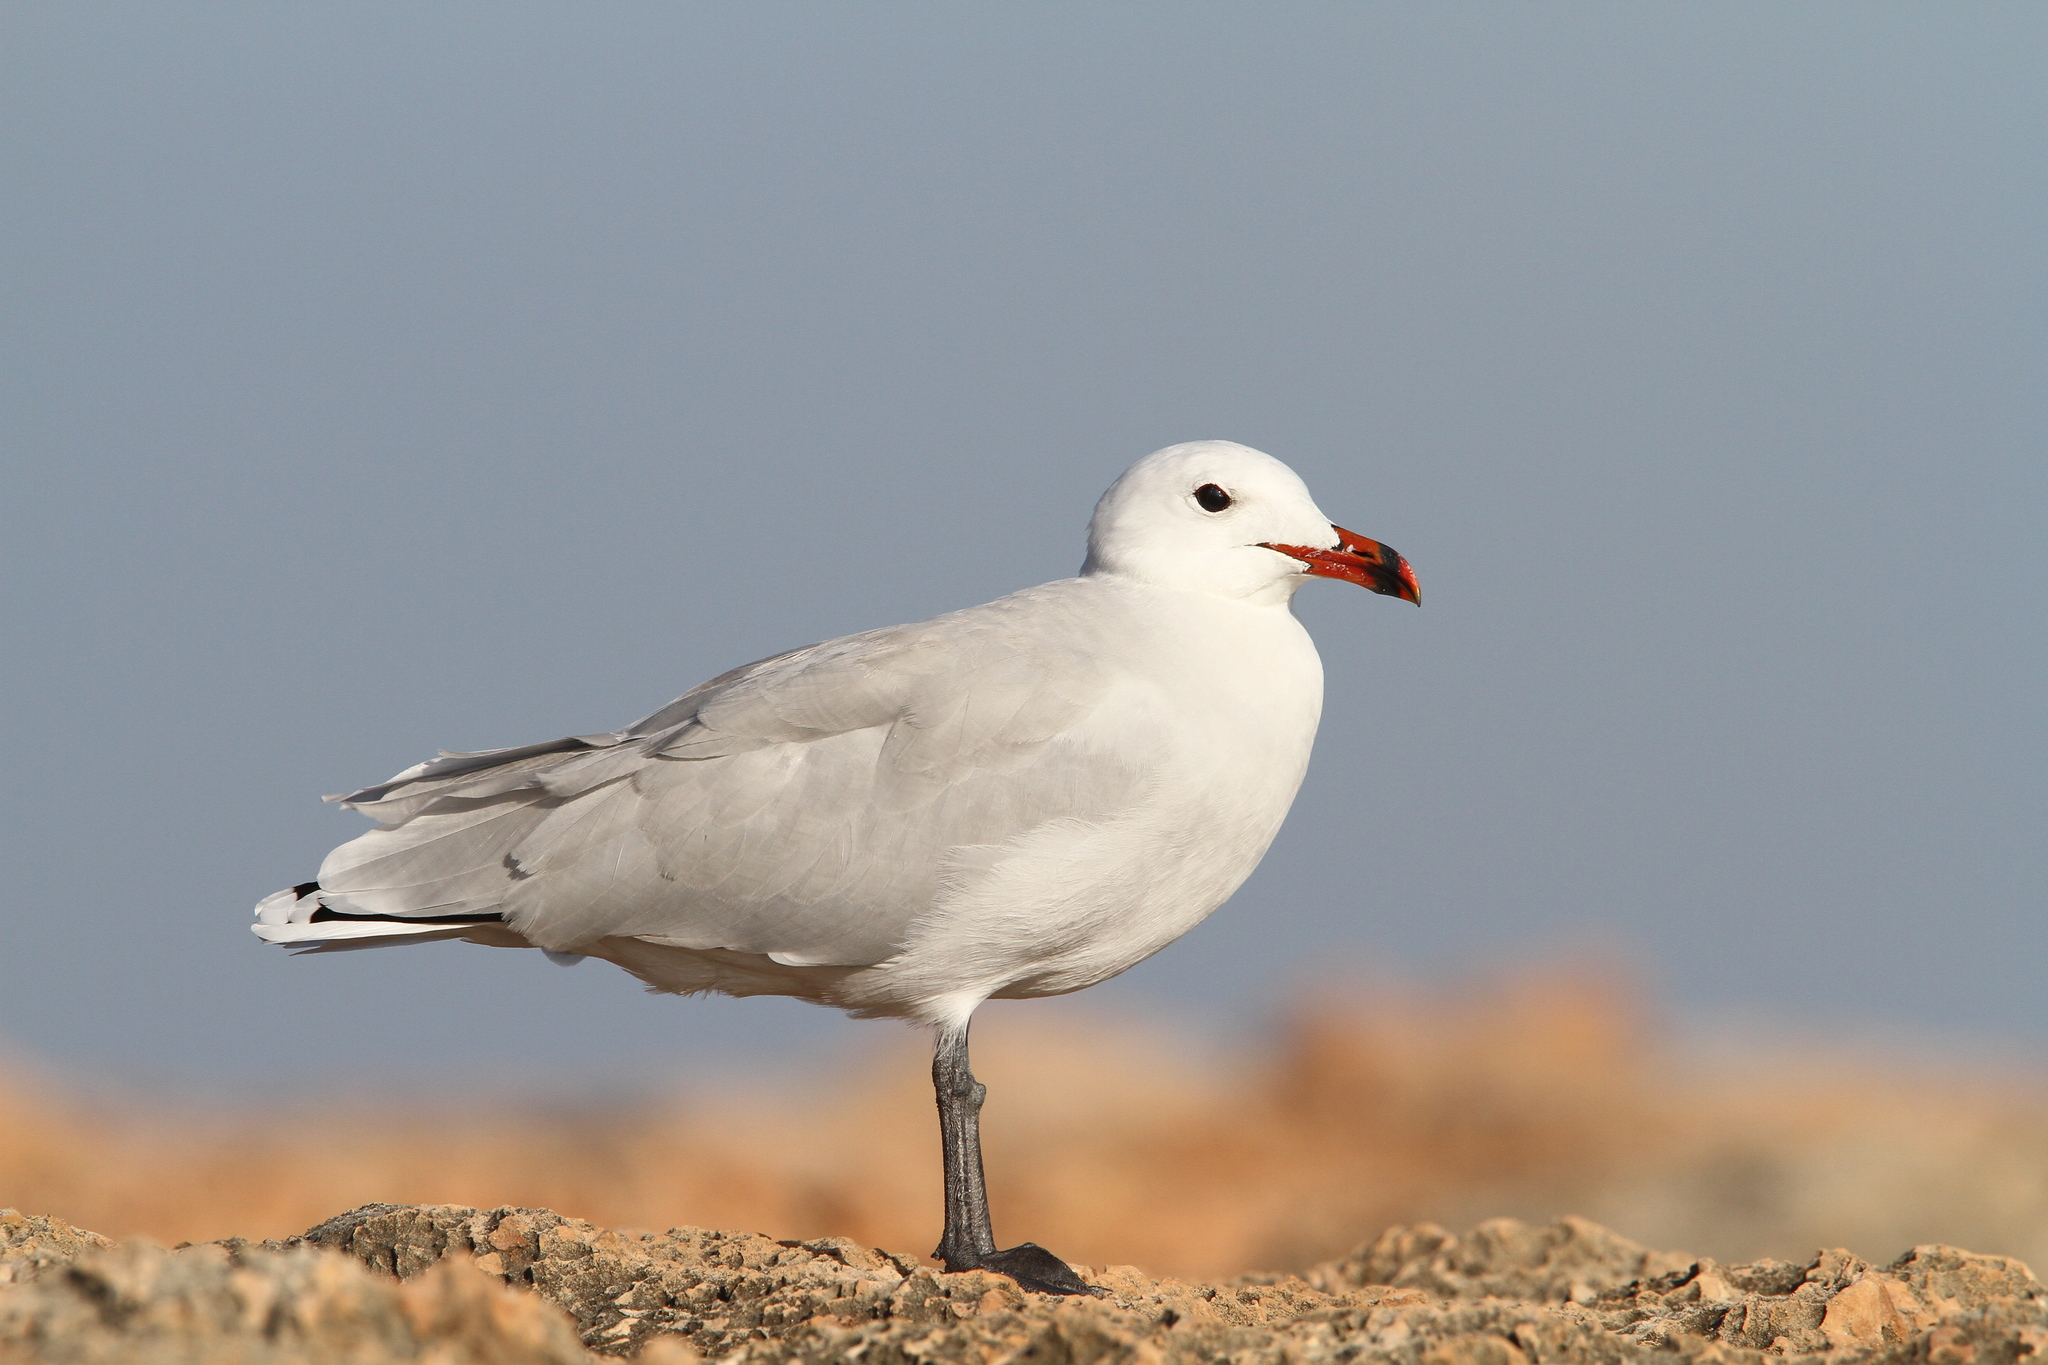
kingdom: Animalia
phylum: Chordata
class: Aves
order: Charadriiformes
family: Laridae
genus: Ichthyaetus
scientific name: Ichthyaetus audouinii
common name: Audouin's gull
